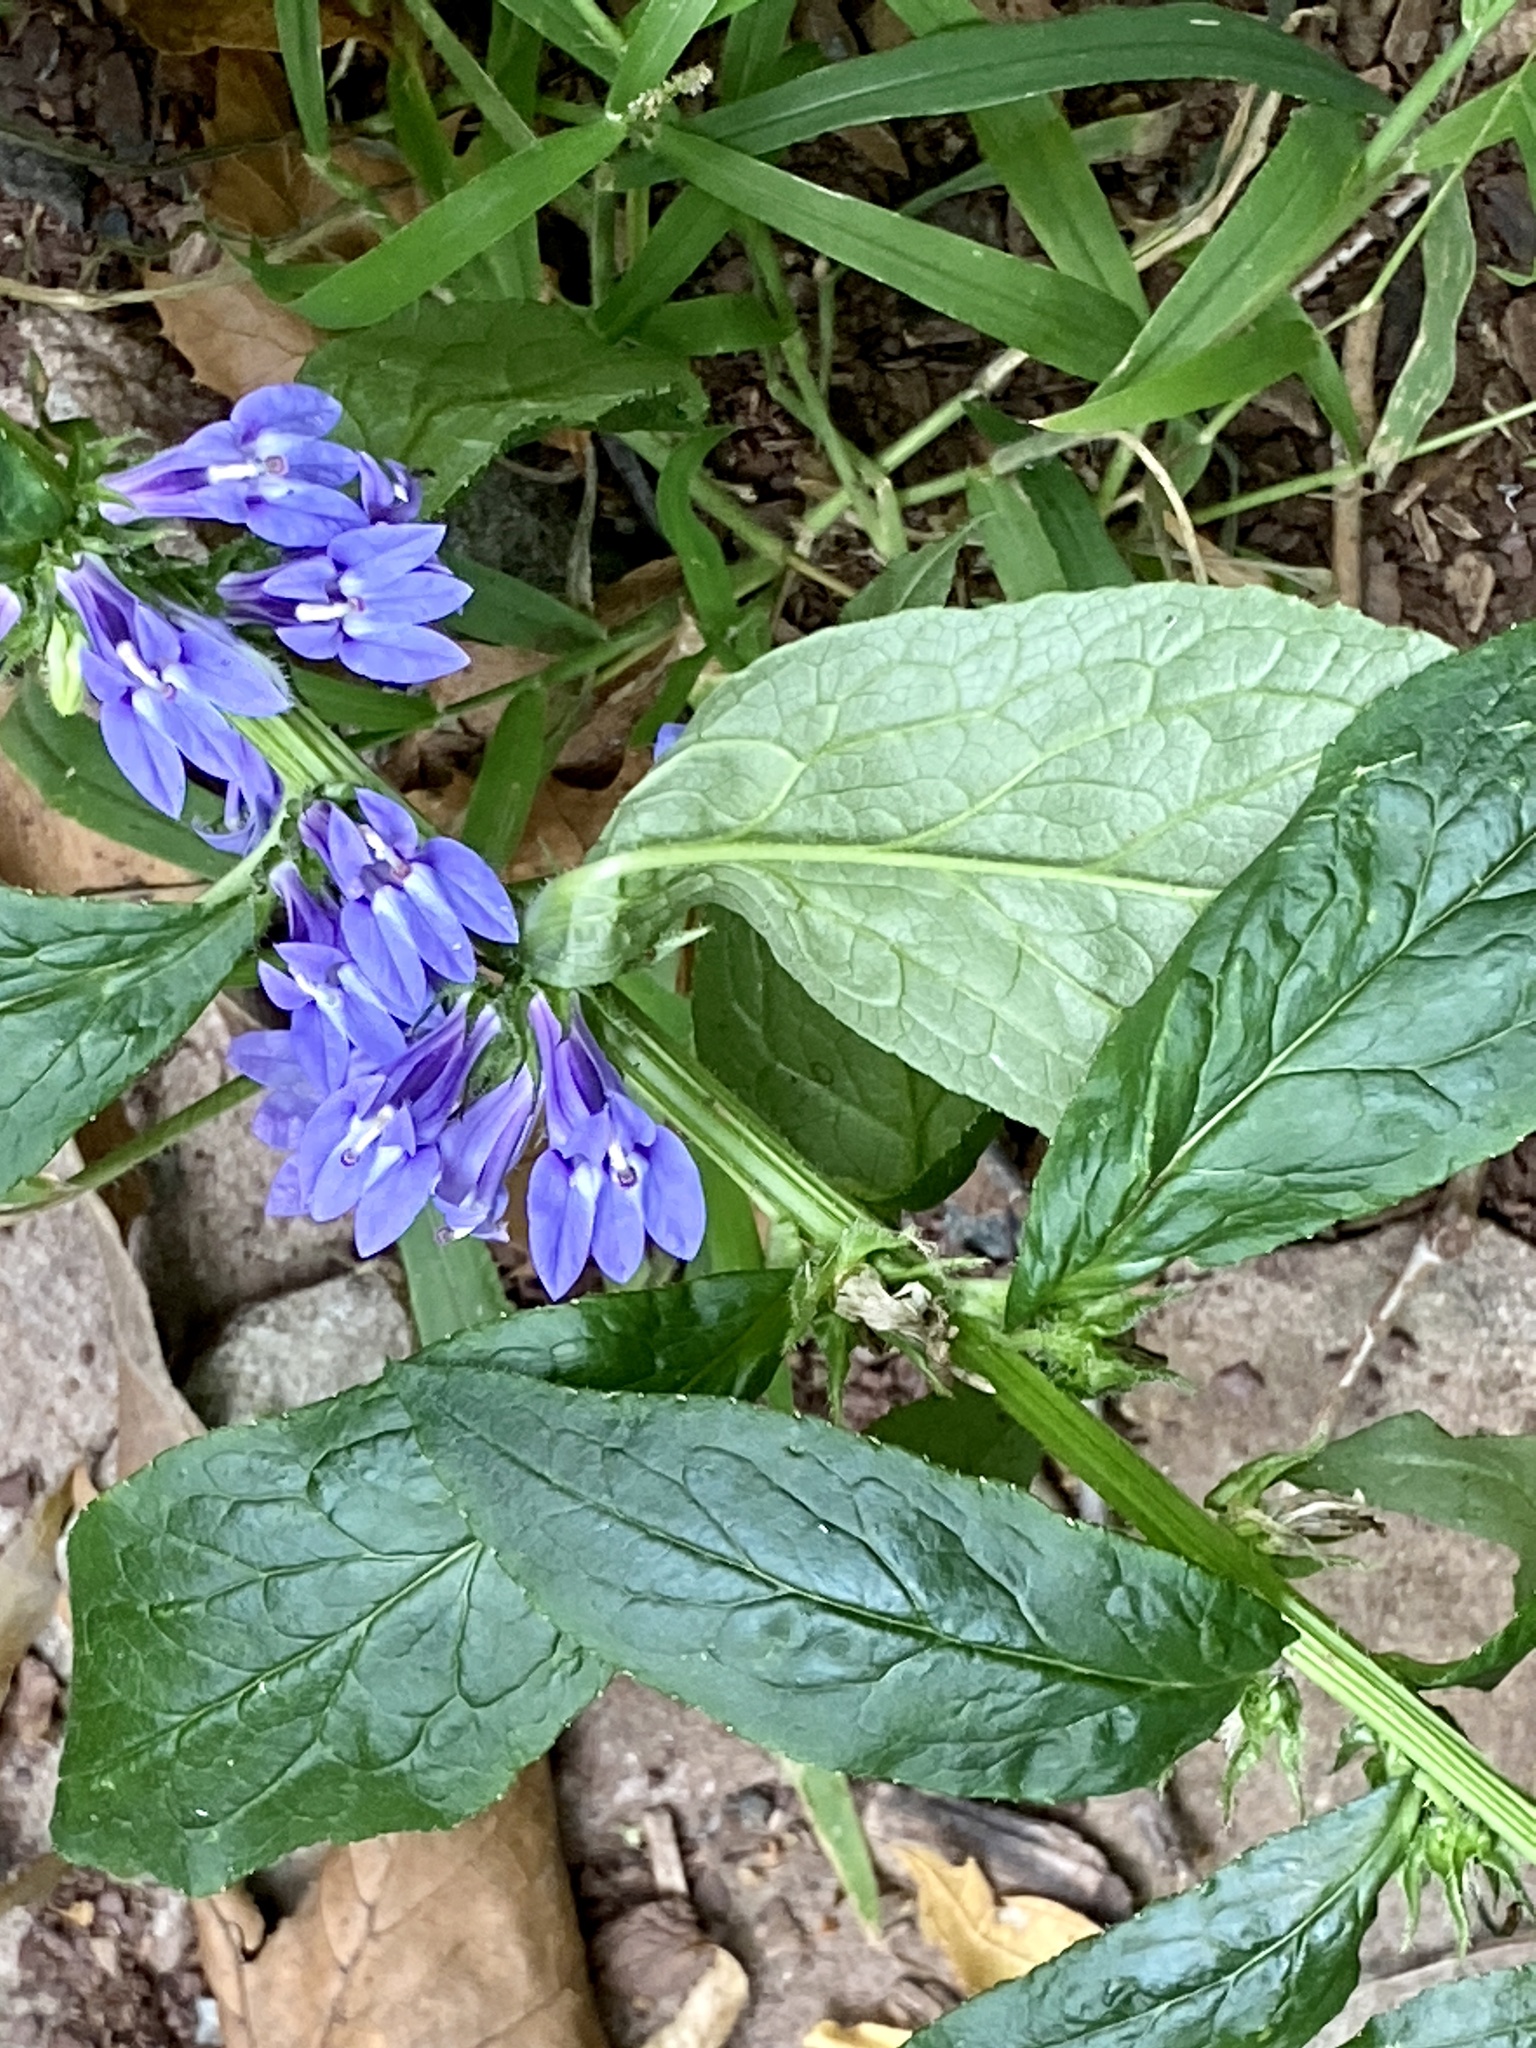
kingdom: Plantae
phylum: Tracheophyta
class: Magnoliopsida
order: Asterales
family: Campanulaceae
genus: Lobelia
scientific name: Lobelia siphilitica
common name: Great lobelia
